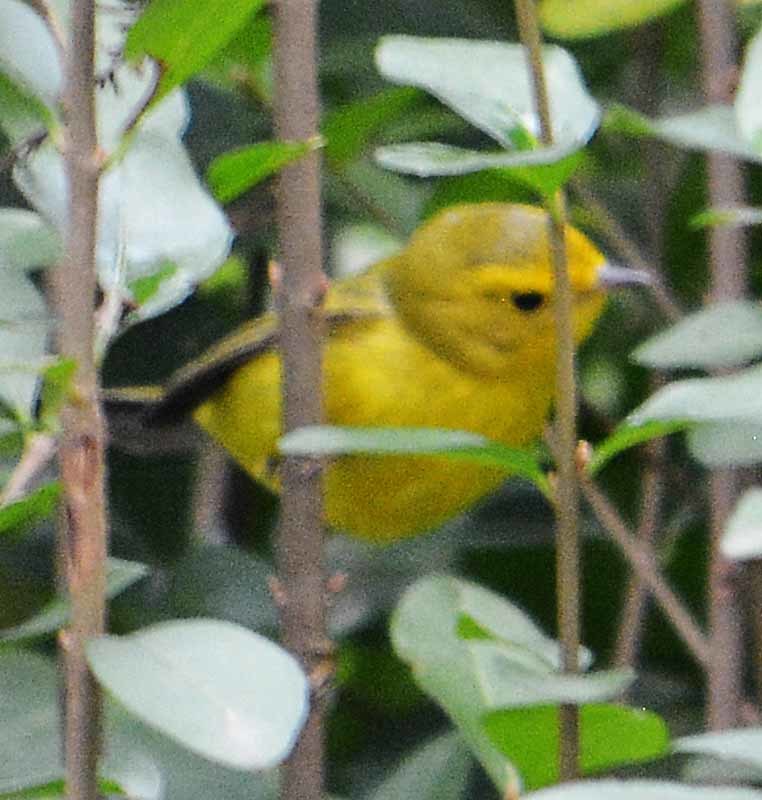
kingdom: Animalia
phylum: Chordata
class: Aves
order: Passeriformes
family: Parulidae
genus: Cardellina
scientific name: Cardellina pusilla
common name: Wilson's warbler
